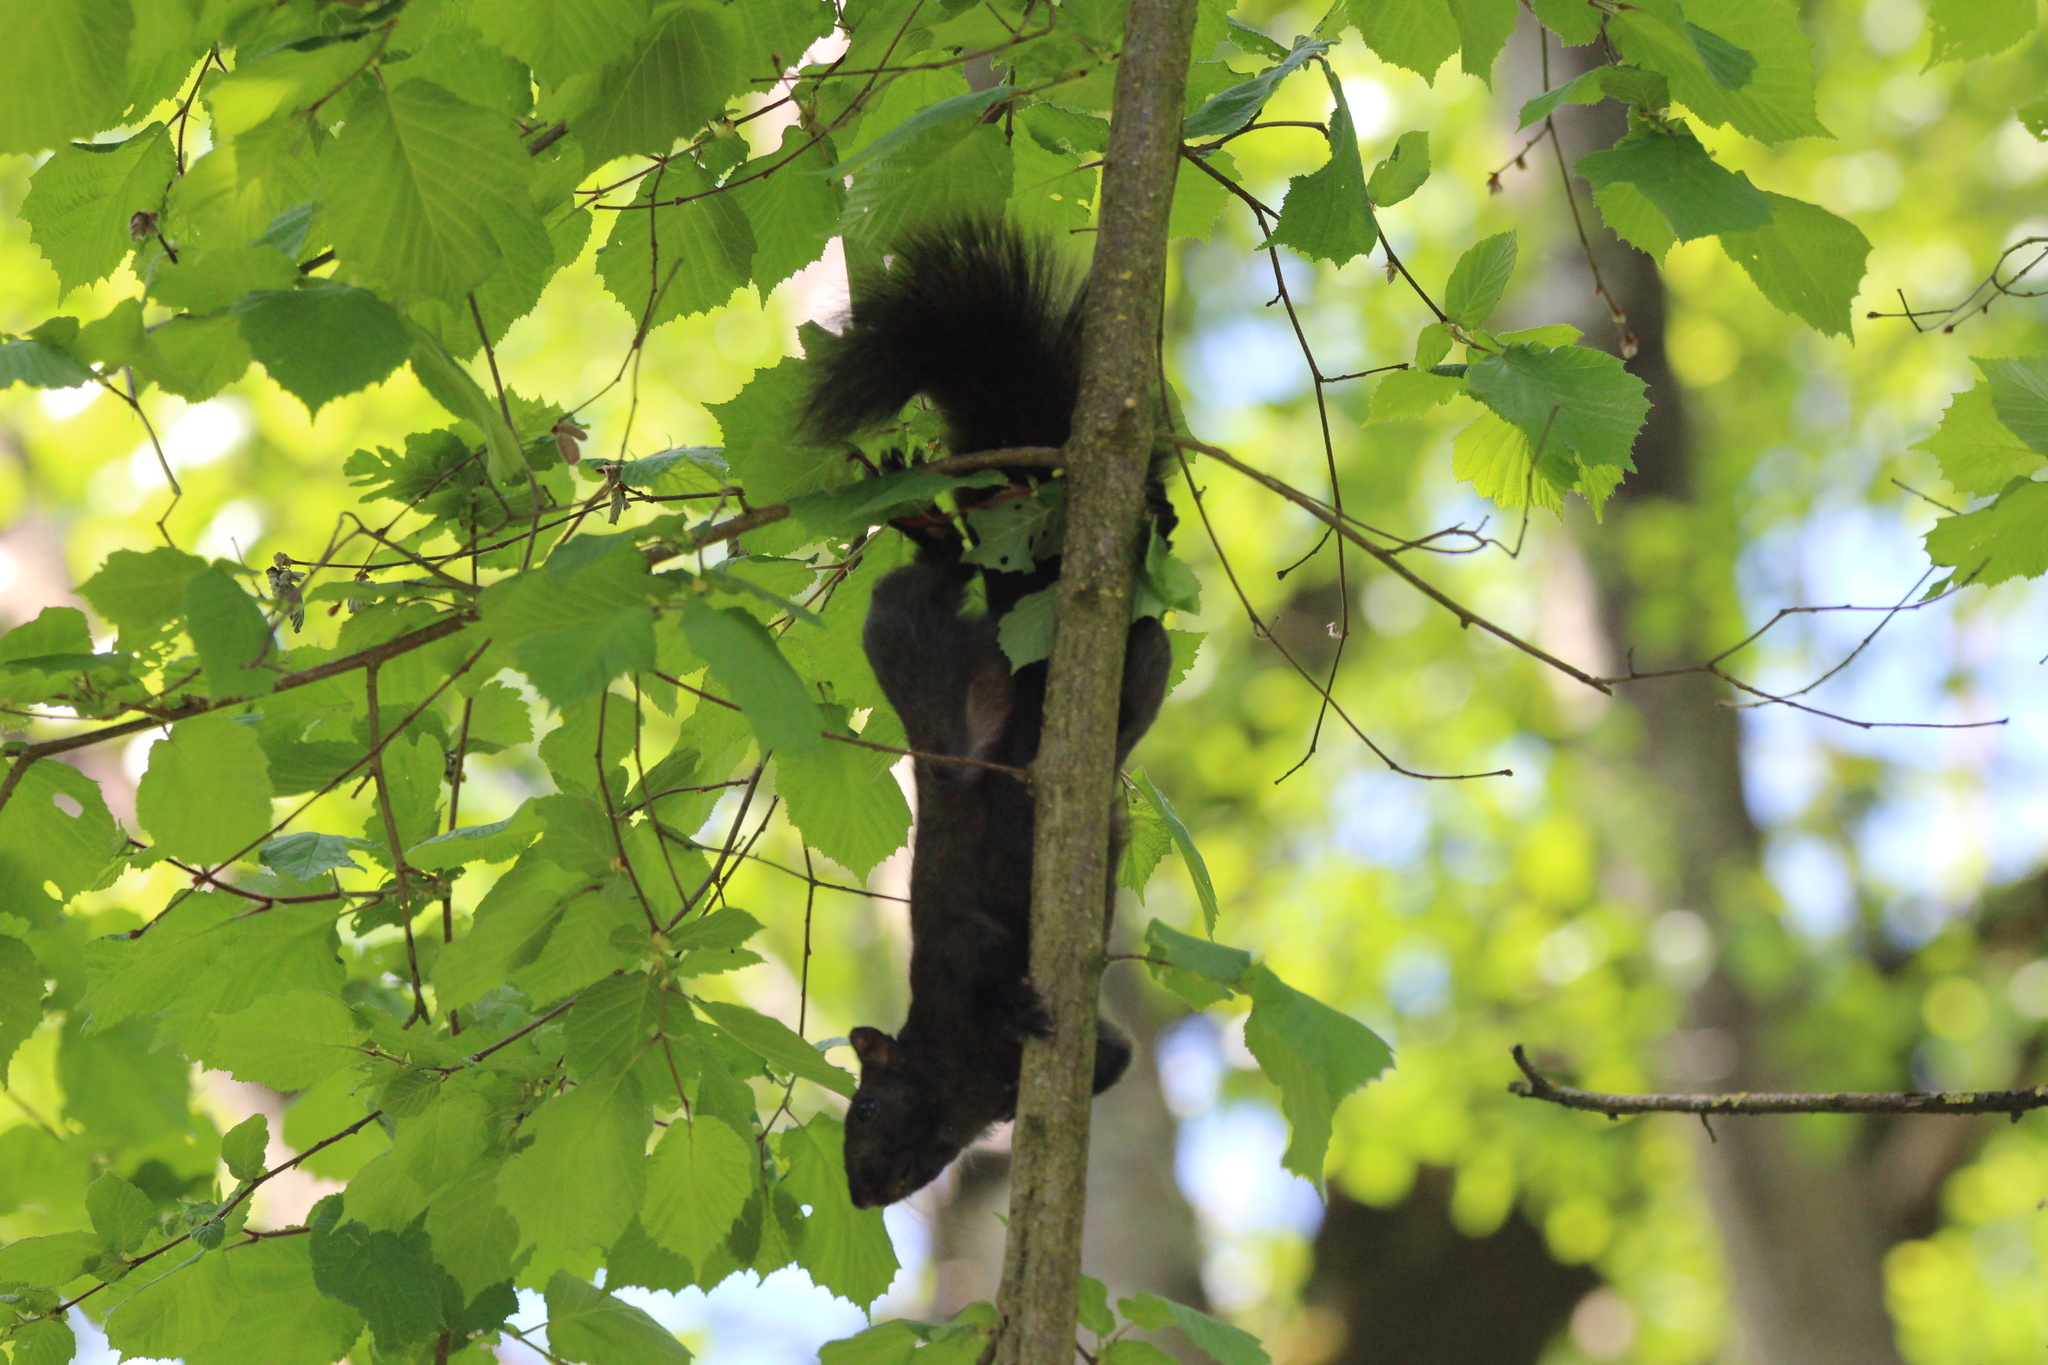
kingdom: Animalia
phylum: Chordata
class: Mammalia
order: Rodentia
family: Sciuridae
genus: Sciurus
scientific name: Sciurus carolinensis
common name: Eastern gray squirrel
